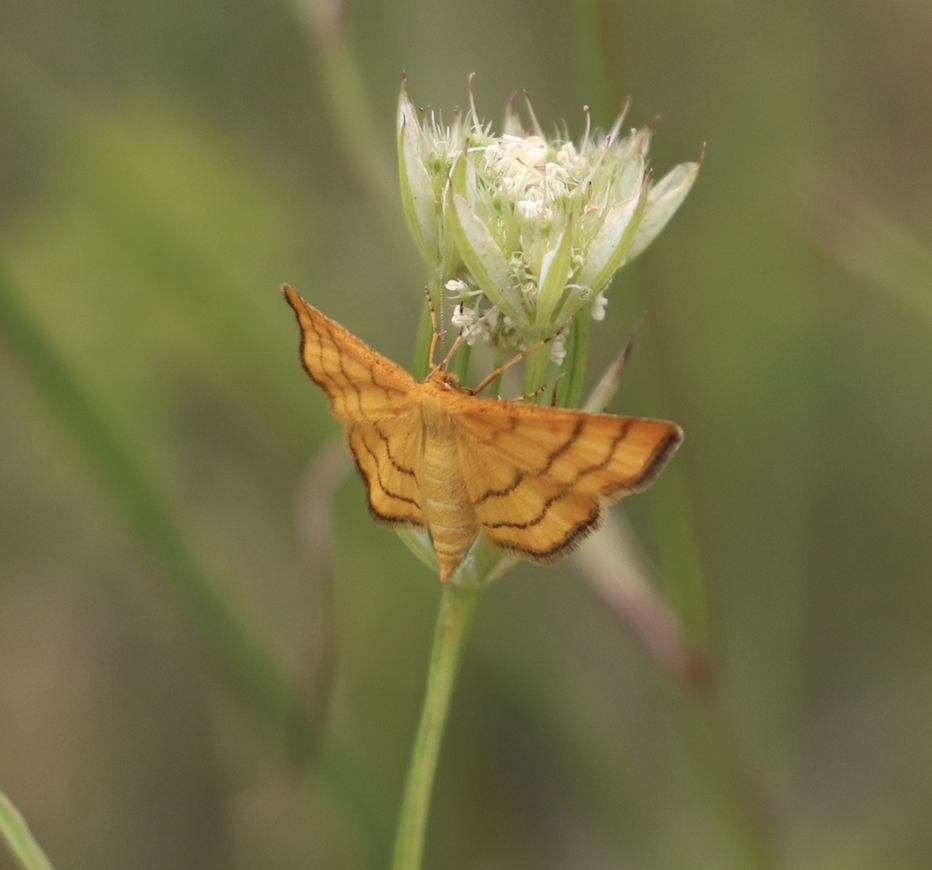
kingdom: Animalia
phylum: Arthropoda
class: Insecta
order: Lepidoptera
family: Geometridae
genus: Idaea
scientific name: Idaea aureolaria
